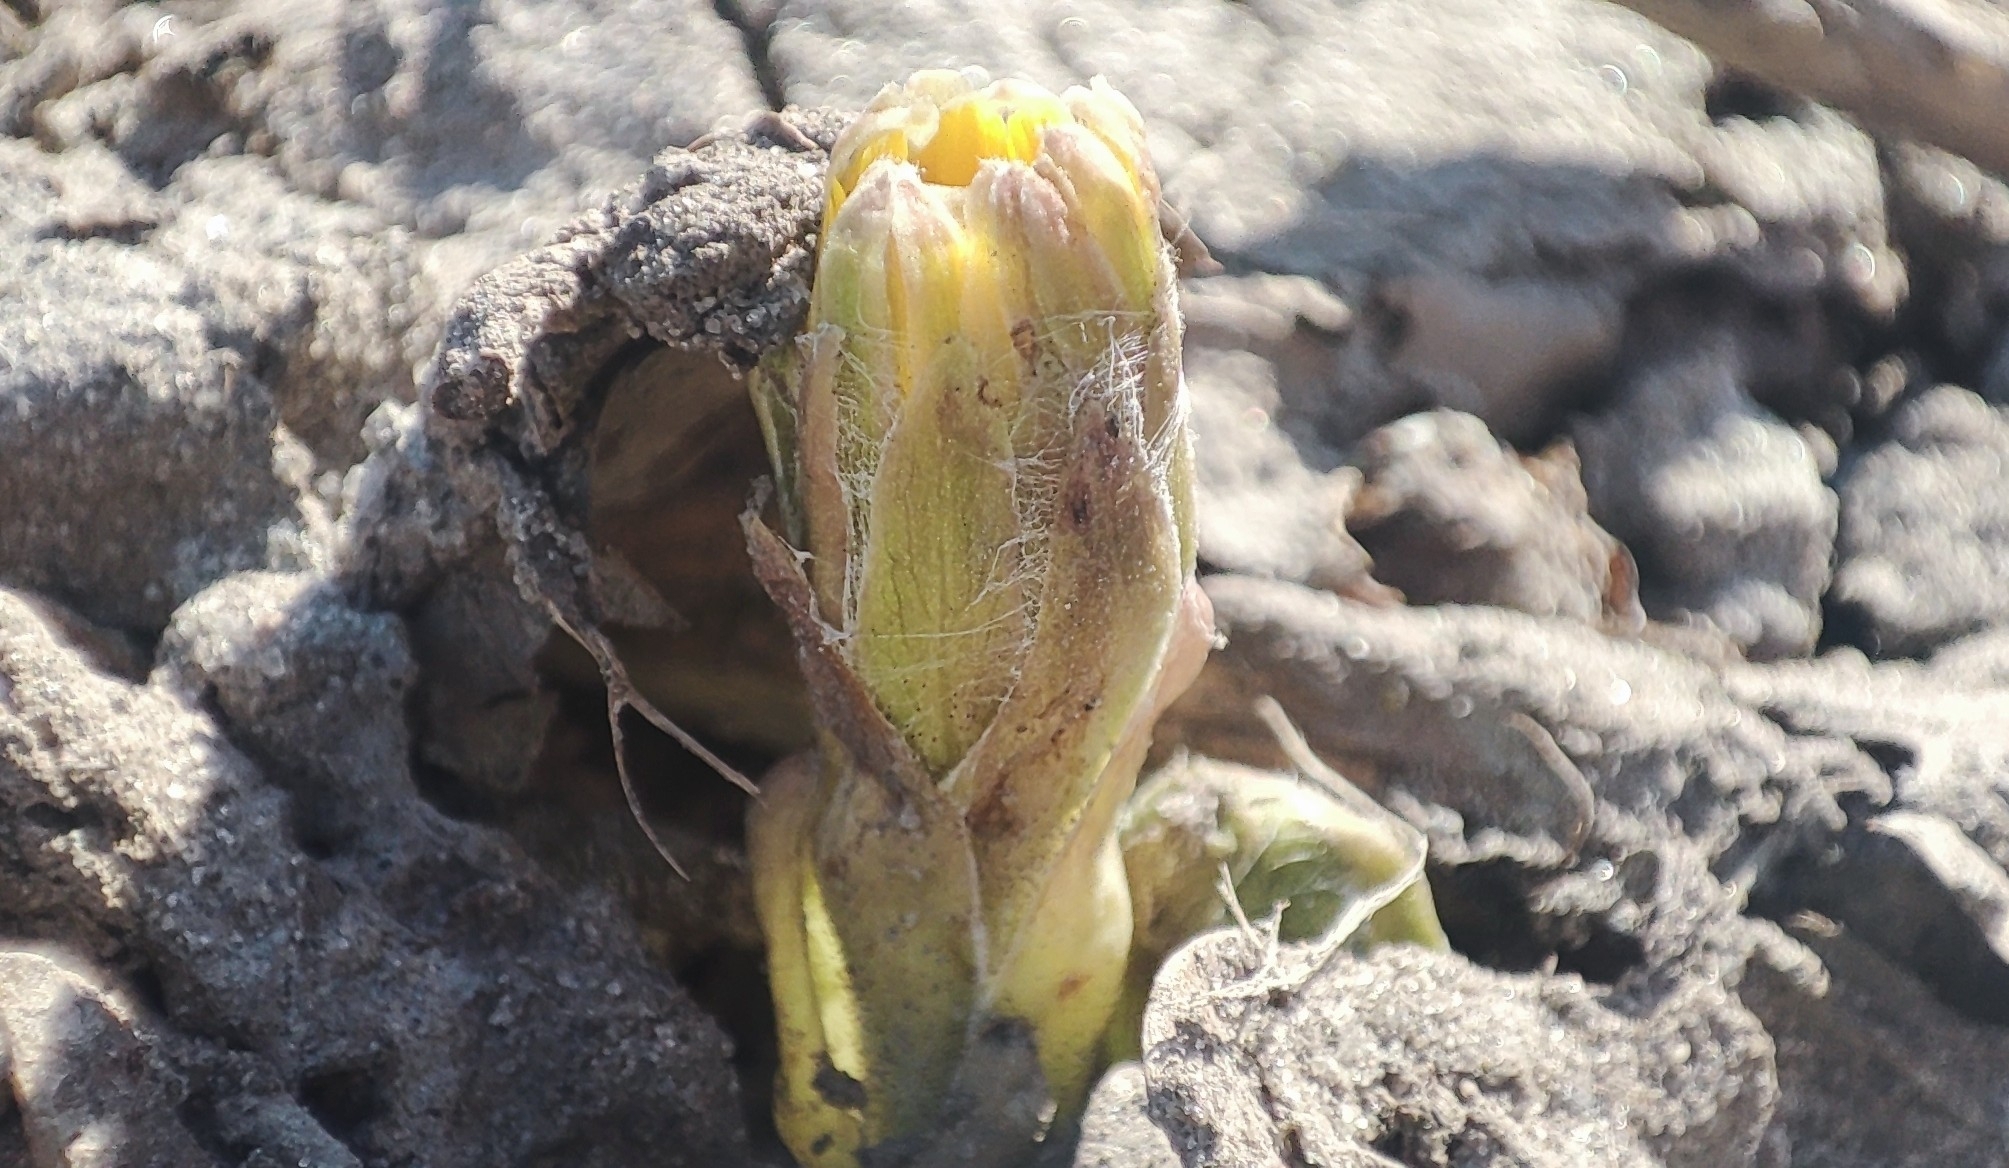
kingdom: Plantae
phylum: Tracheophyta
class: Magnoliopsida
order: Asterales
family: Asteraceae
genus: Tussilago
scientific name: Tussilago farfara
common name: Coltsfoot
